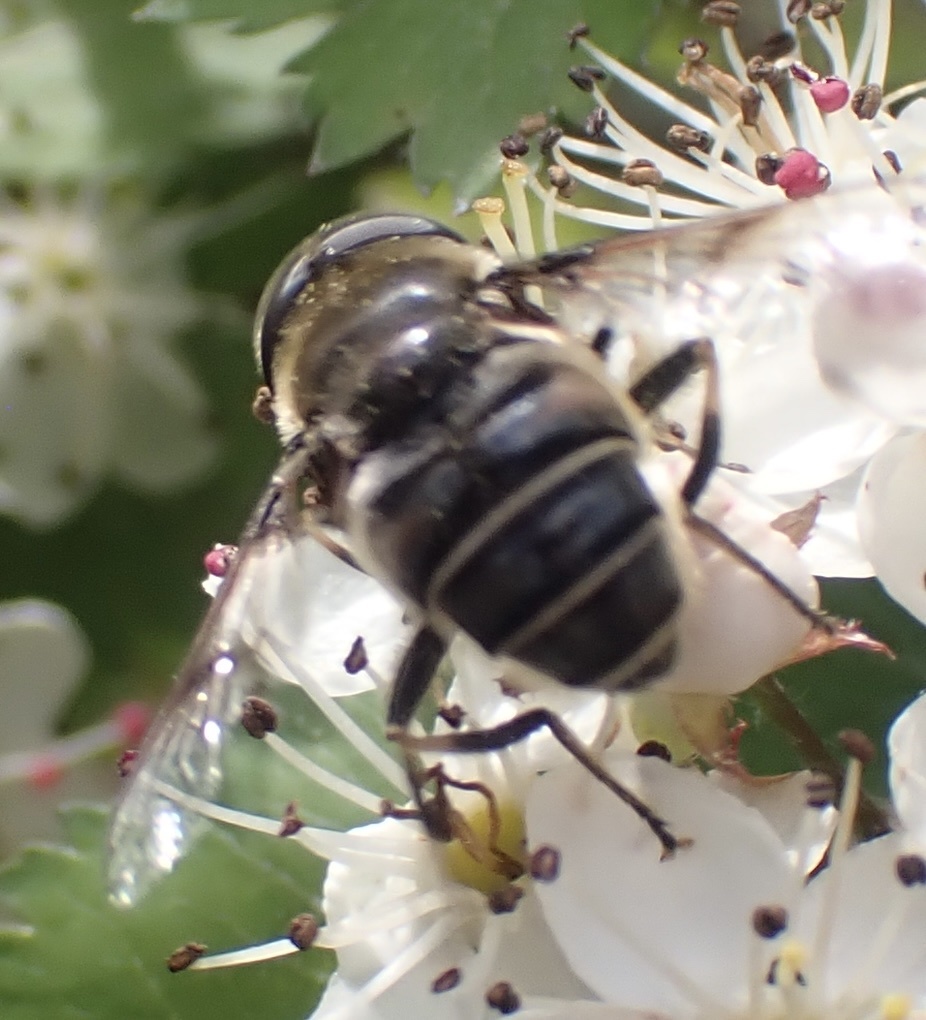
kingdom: Animalia
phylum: Arthropoda
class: Insecta
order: Diptera
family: Syrphidae
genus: Eristalis
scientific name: Eristalis dimidiata
